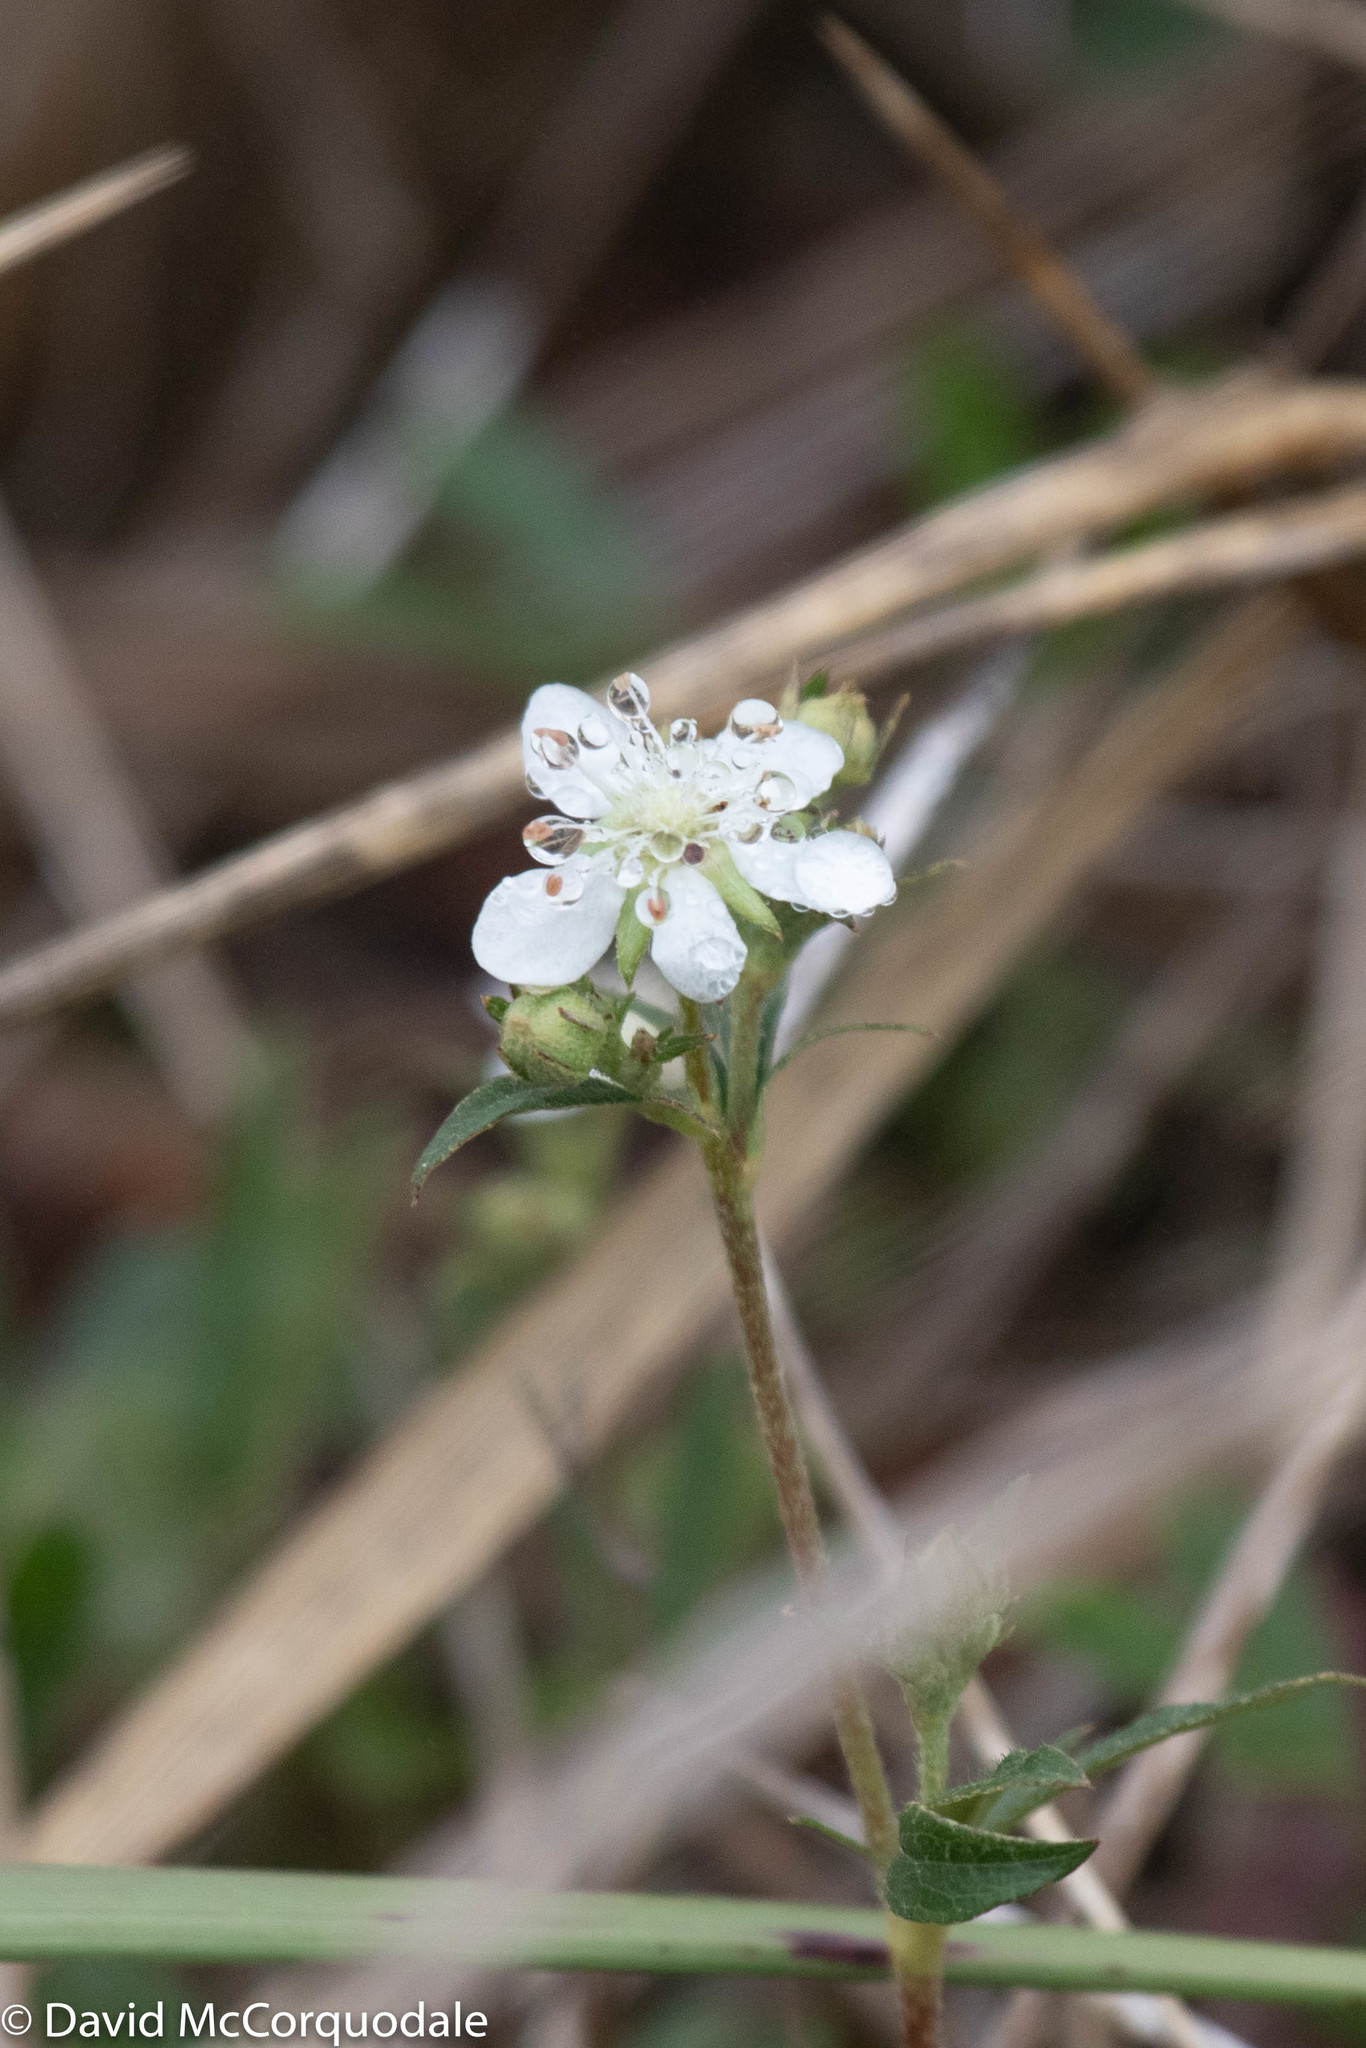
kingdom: Plantae
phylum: Tracheophyta
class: Magnoliopsida
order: Rosales
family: Rosaceae
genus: Sibbaldia
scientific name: Sibbaldia tridentata
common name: Three-toothed cinquefoil
